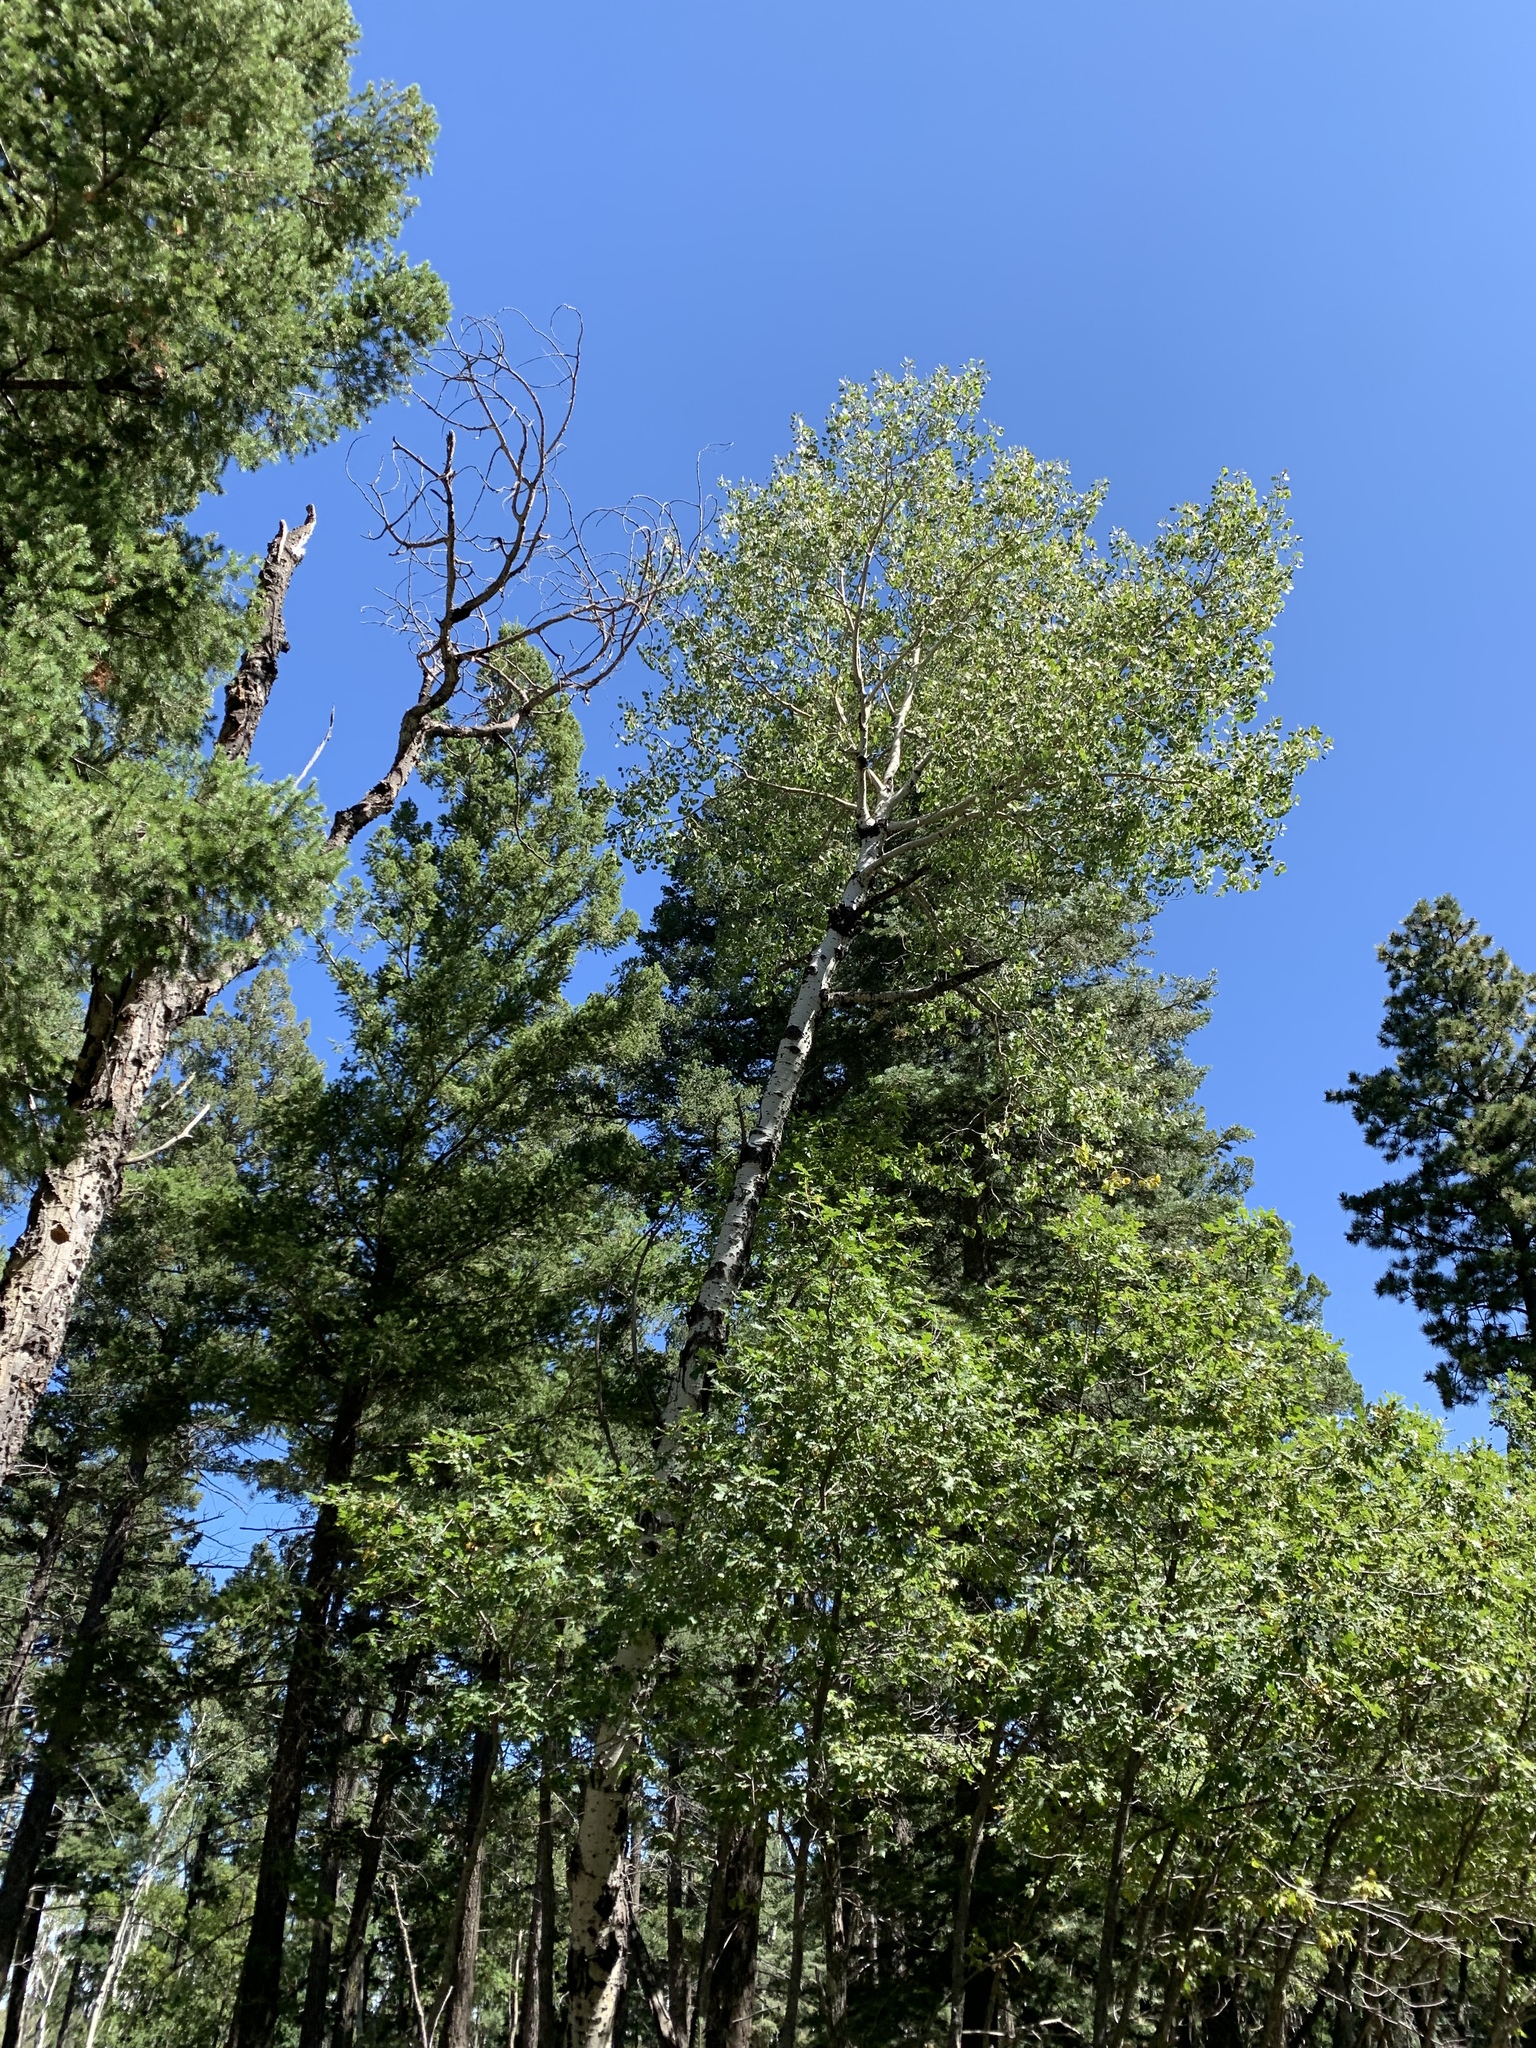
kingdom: Plantae
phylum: Tracheophyta
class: Magnoliopsida
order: Malpighiales
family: Salicaceae
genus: Populus
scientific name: Populus tremuloides
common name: Quaking aspen
